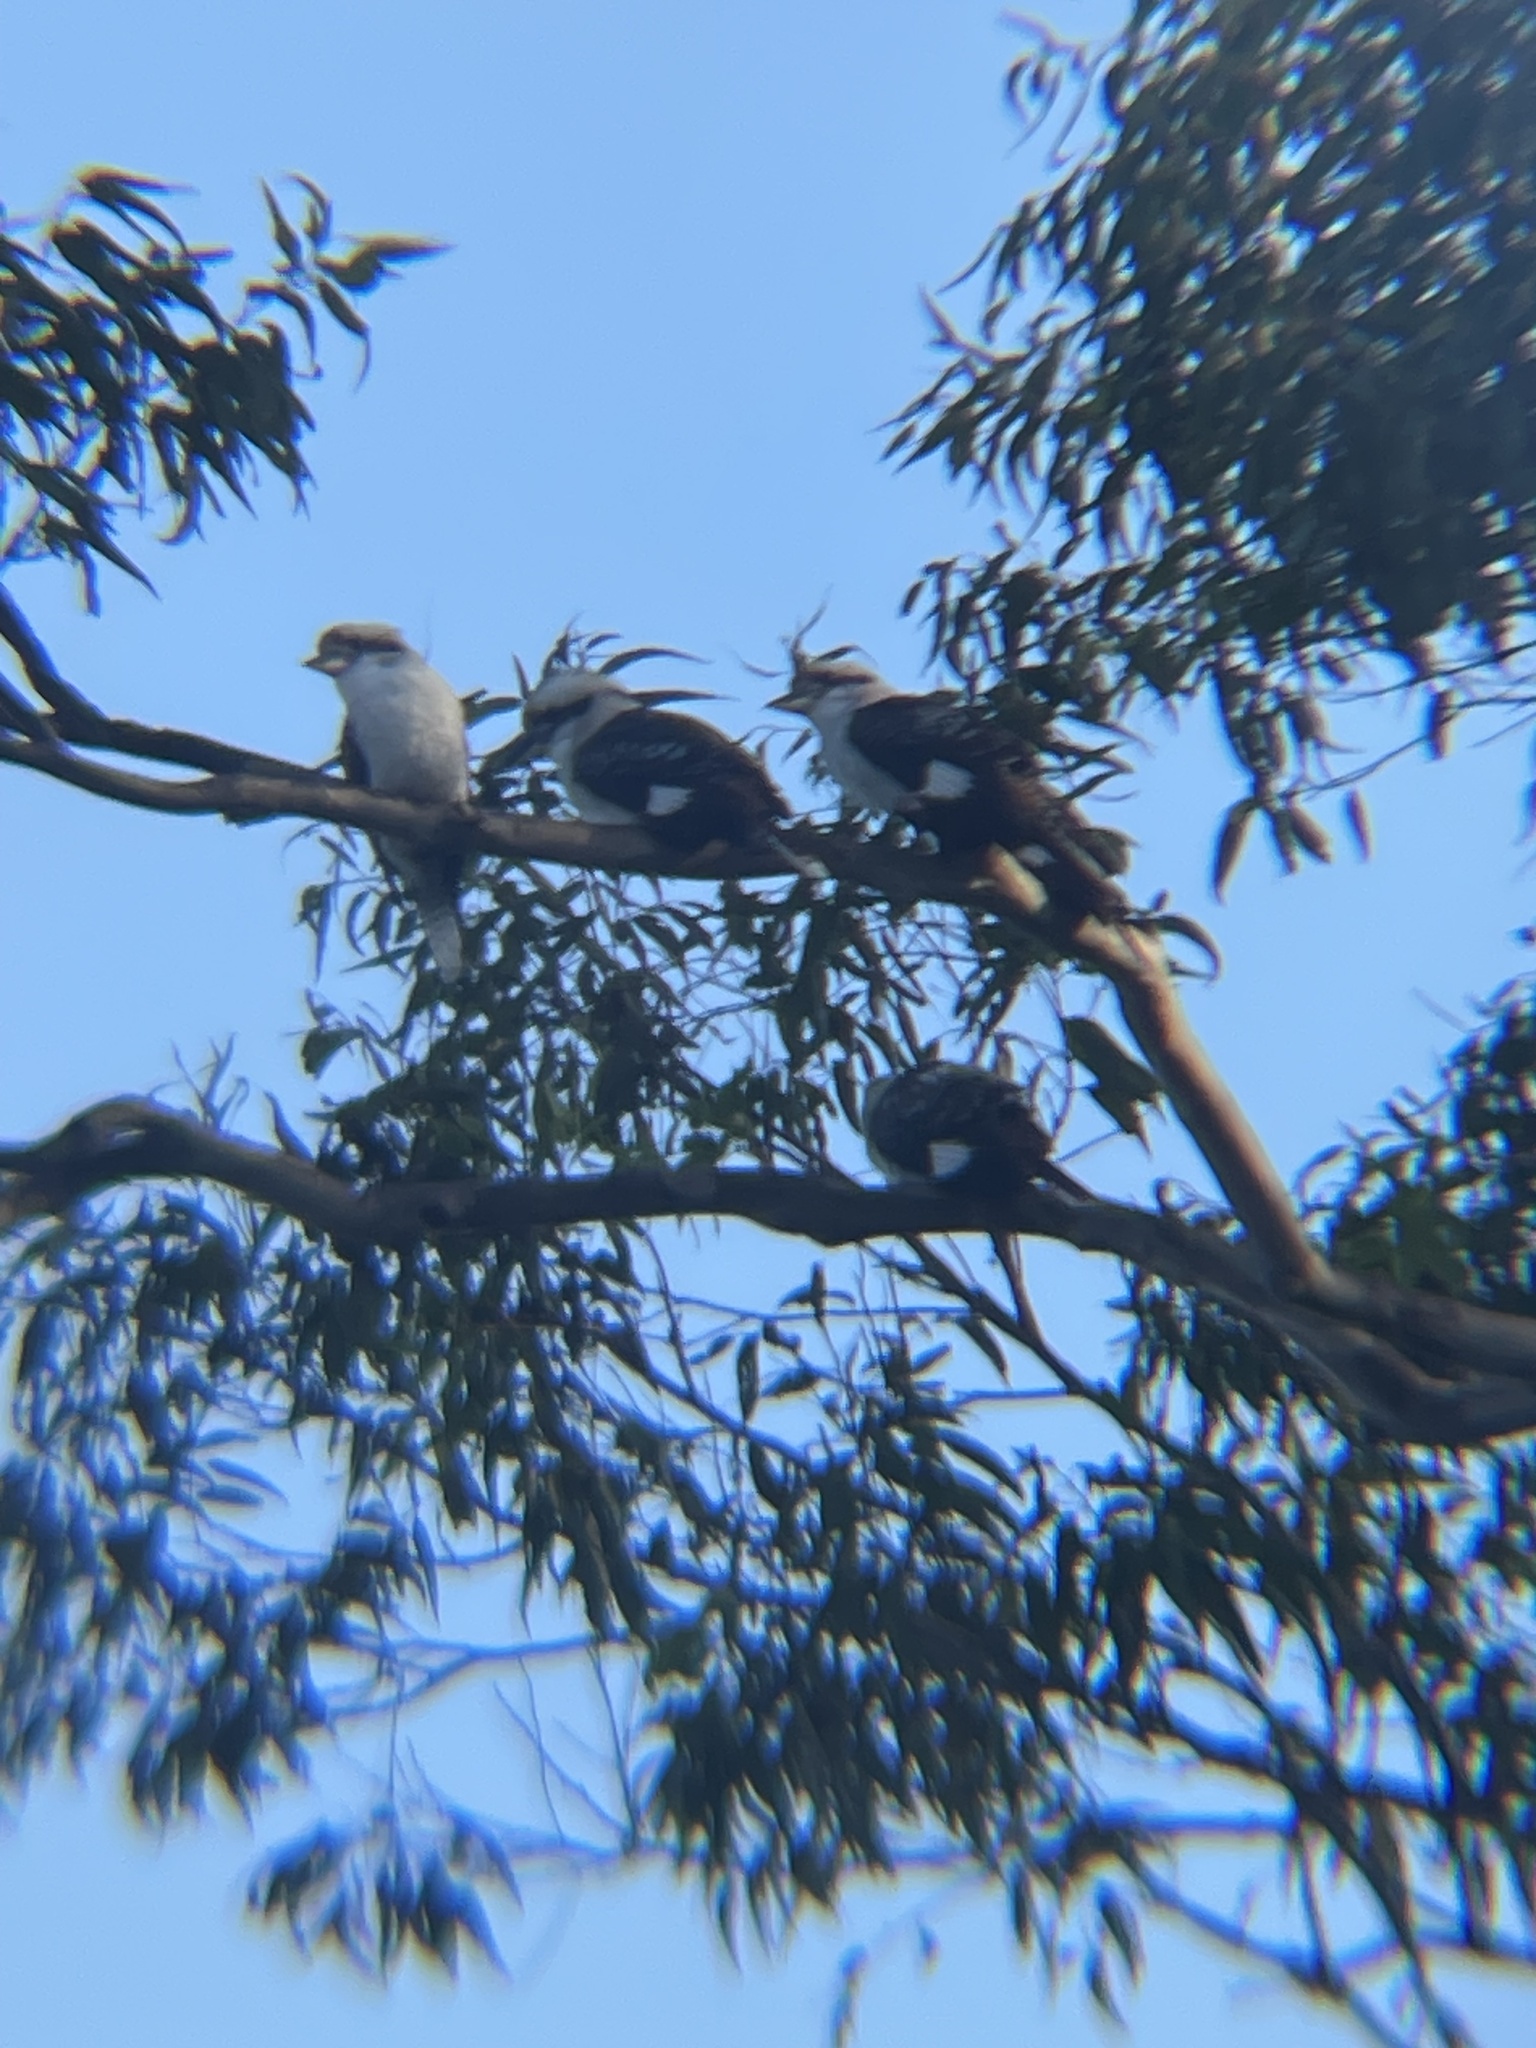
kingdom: Animalia
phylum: Chordata
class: Aves
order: Coraciiformes
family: Alcedinidae
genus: Dacelo
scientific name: Dacelo novaeguineae
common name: Laughing kookaburra
